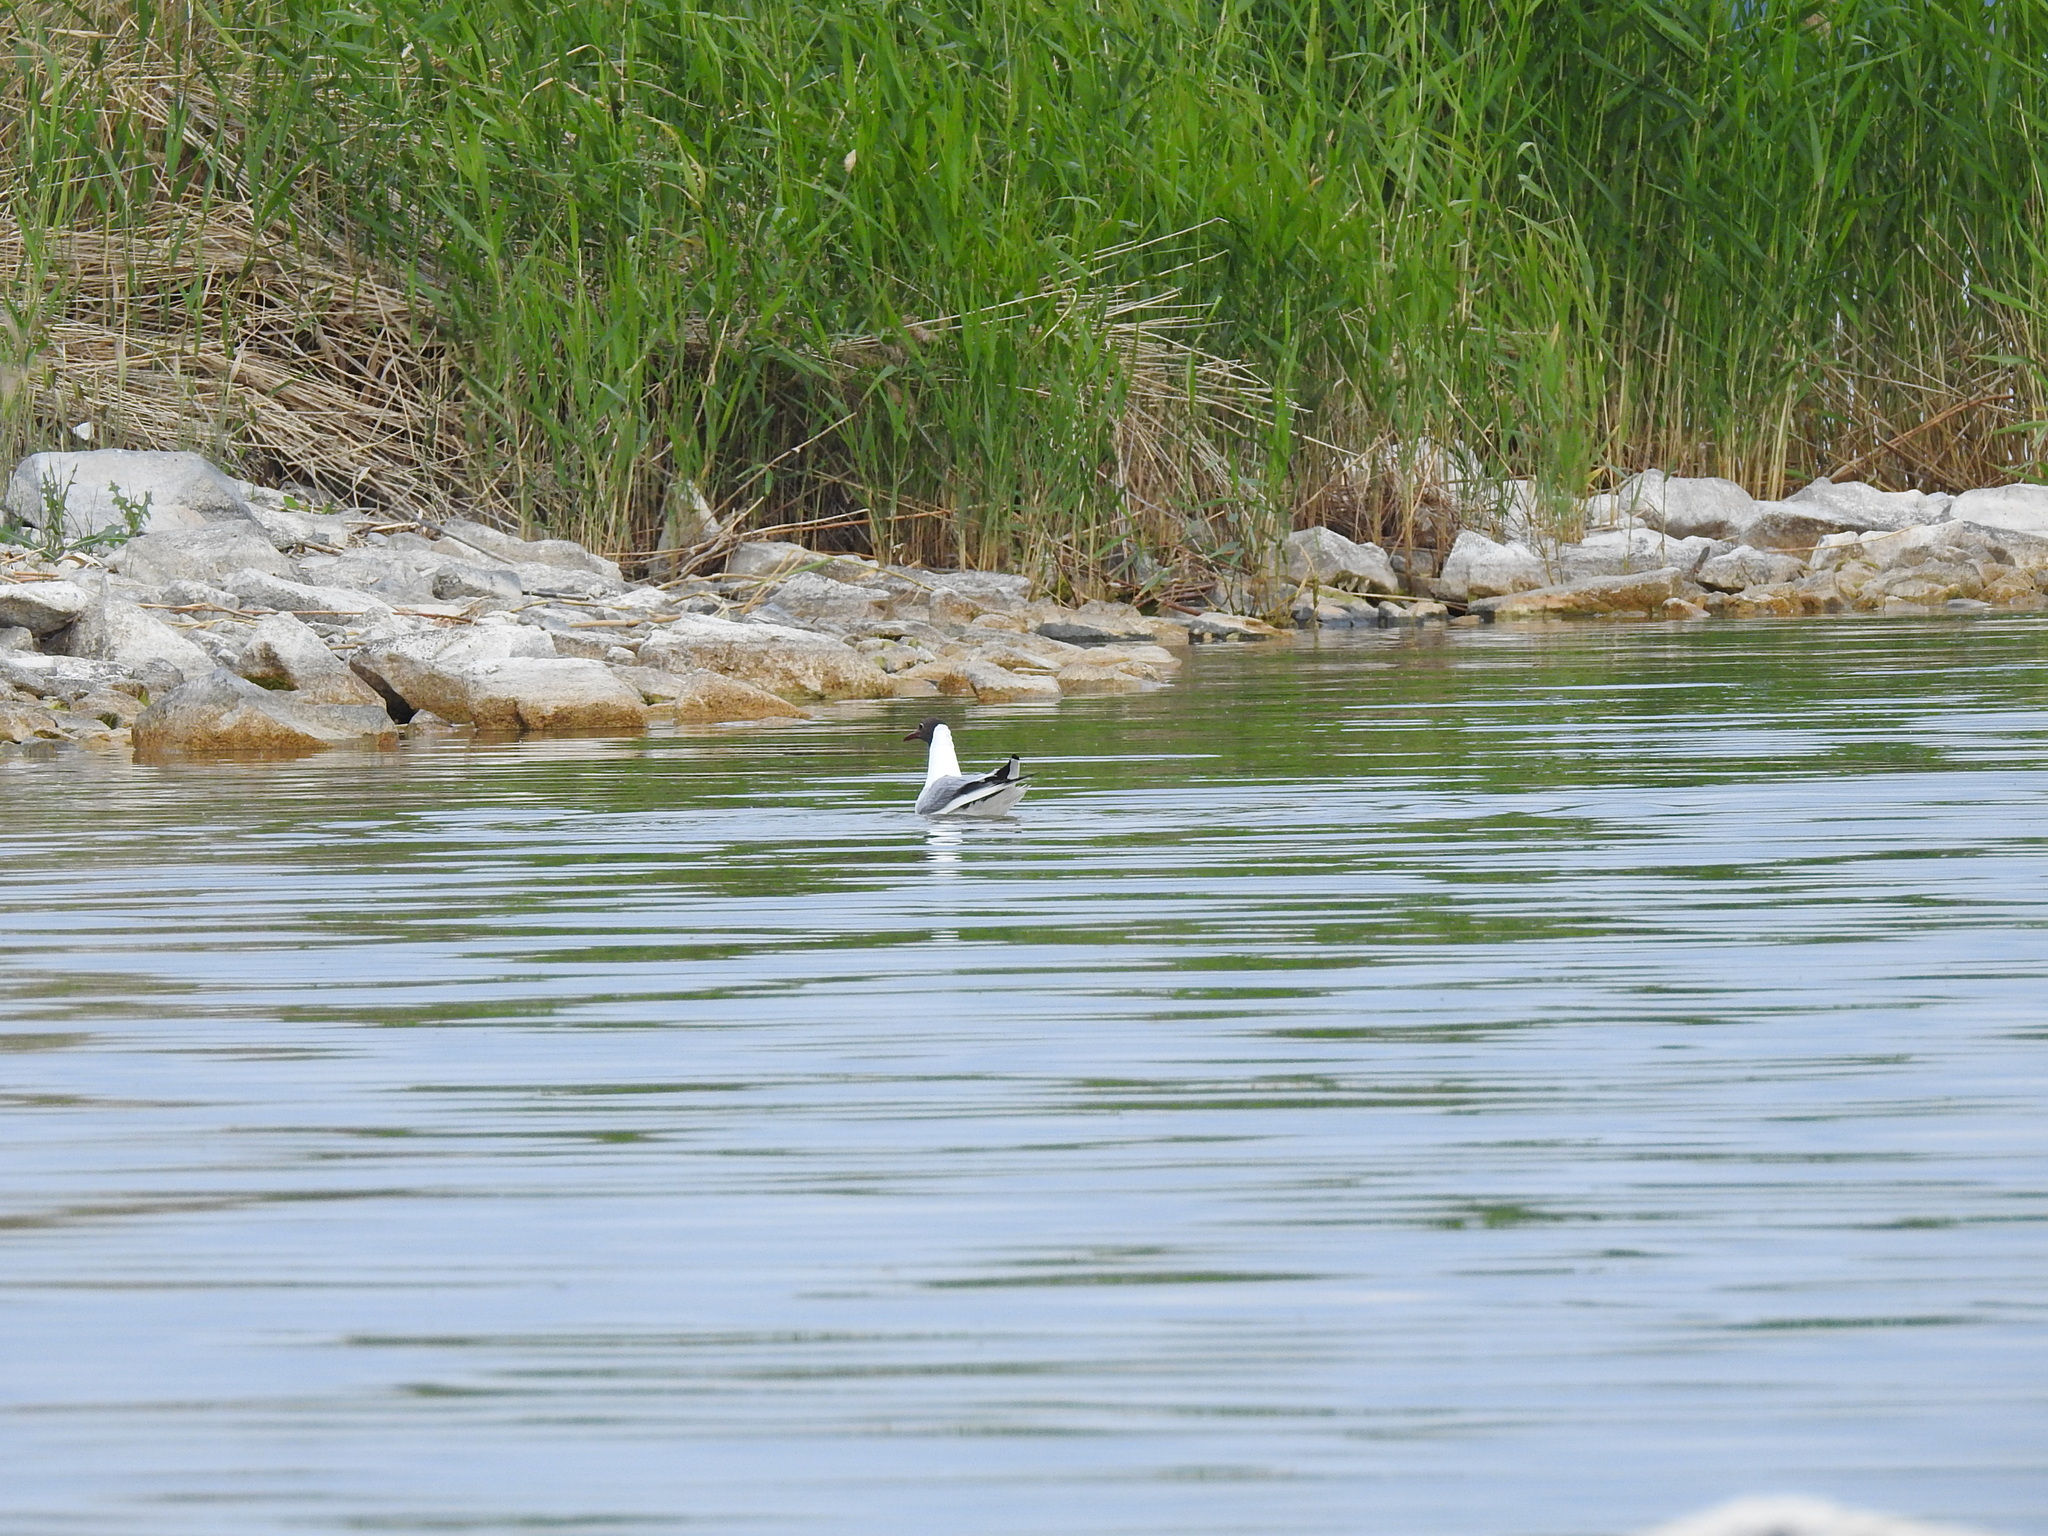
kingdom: Animalia
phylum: Chordata
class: Aves
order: Charadriiformes
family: Laridae
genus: Chroicocephalus
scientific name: Chroicocephalus ridibundus
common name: Black-headed gull
